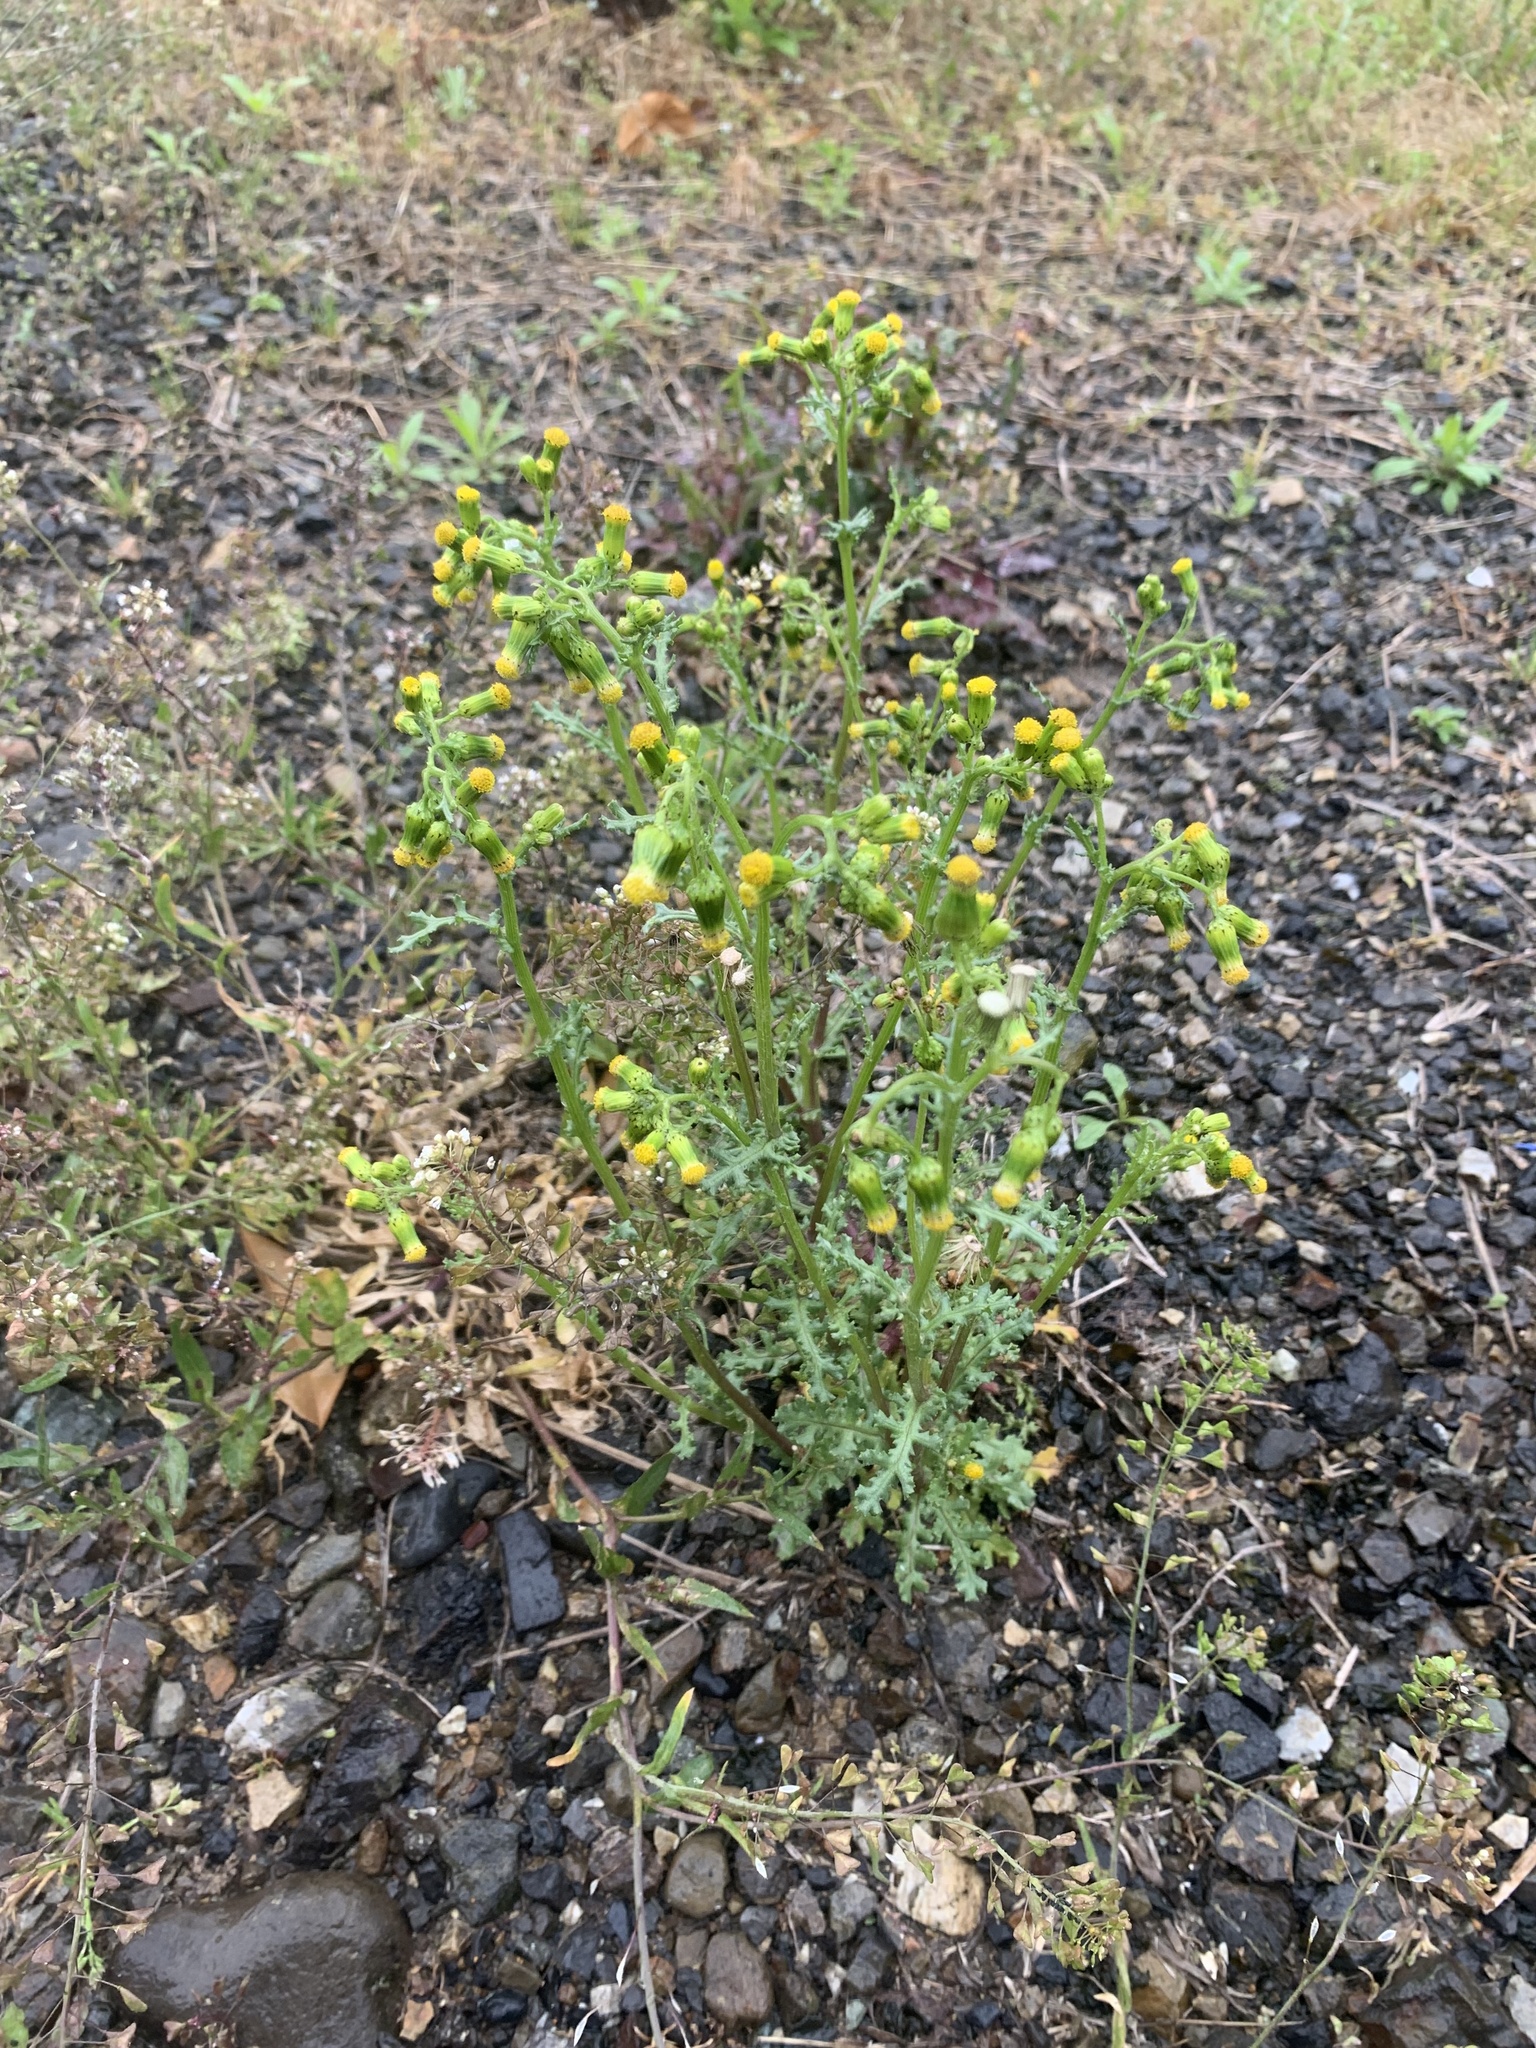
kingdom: Plantae
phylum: Tracheophyta
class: Magnoliopsida
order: Asterales
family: Asteraceae
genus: Senecio
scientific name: Senecio vulgaris
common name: Old-man-in-the-spring
